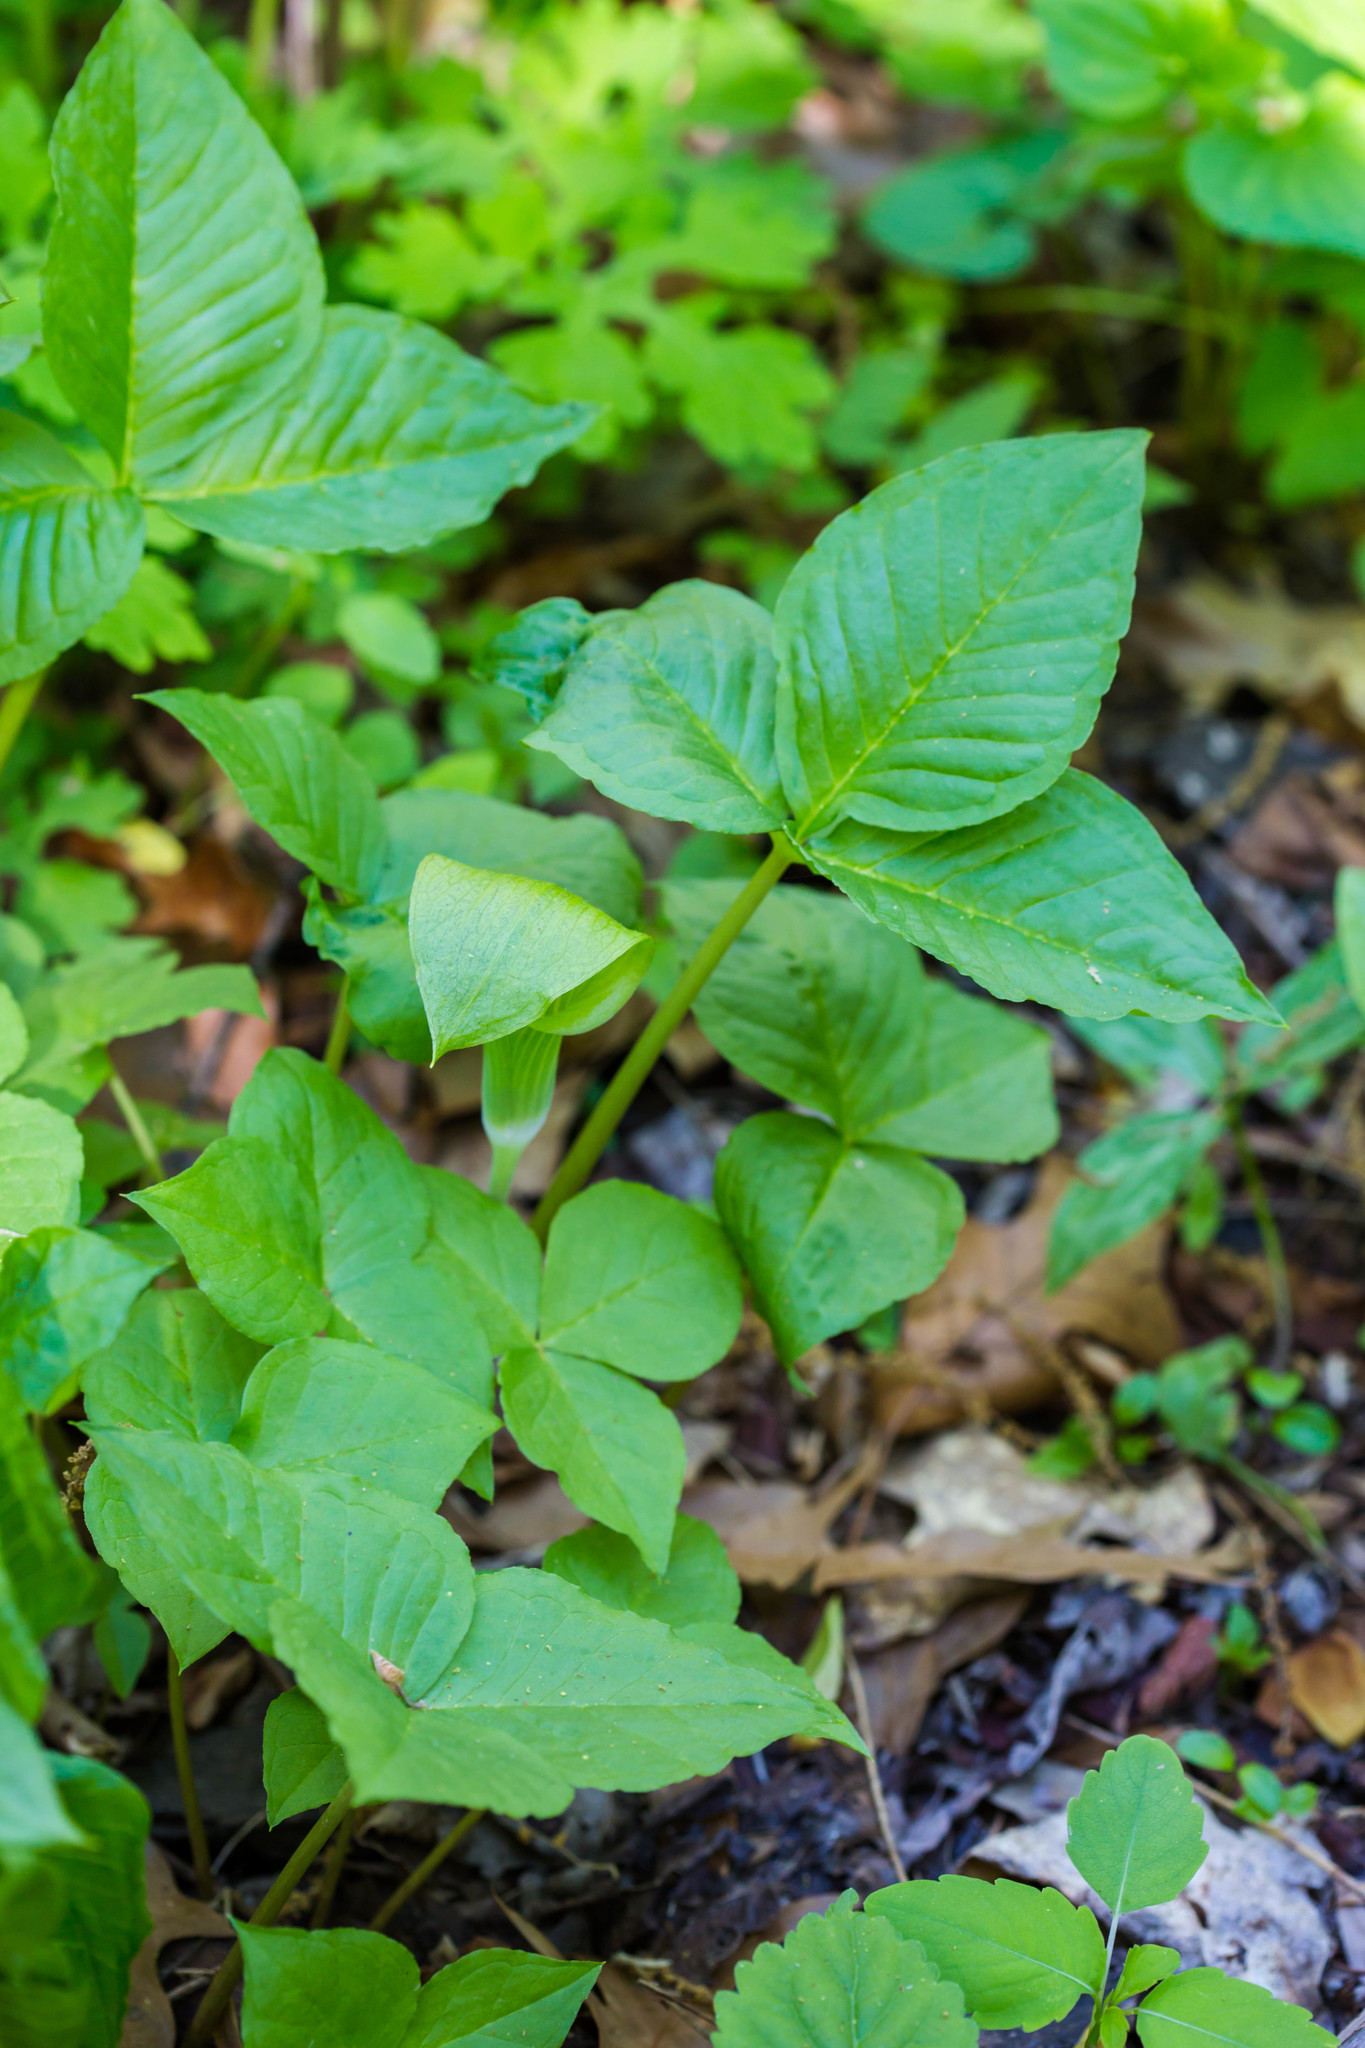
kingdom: Plantae
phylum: Tracheophyta
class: Liliopsida
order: Alismatales
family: Araceae
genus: Arisaema
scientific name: Arisaema triphyllum
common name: Jack-in-the-pulpit
